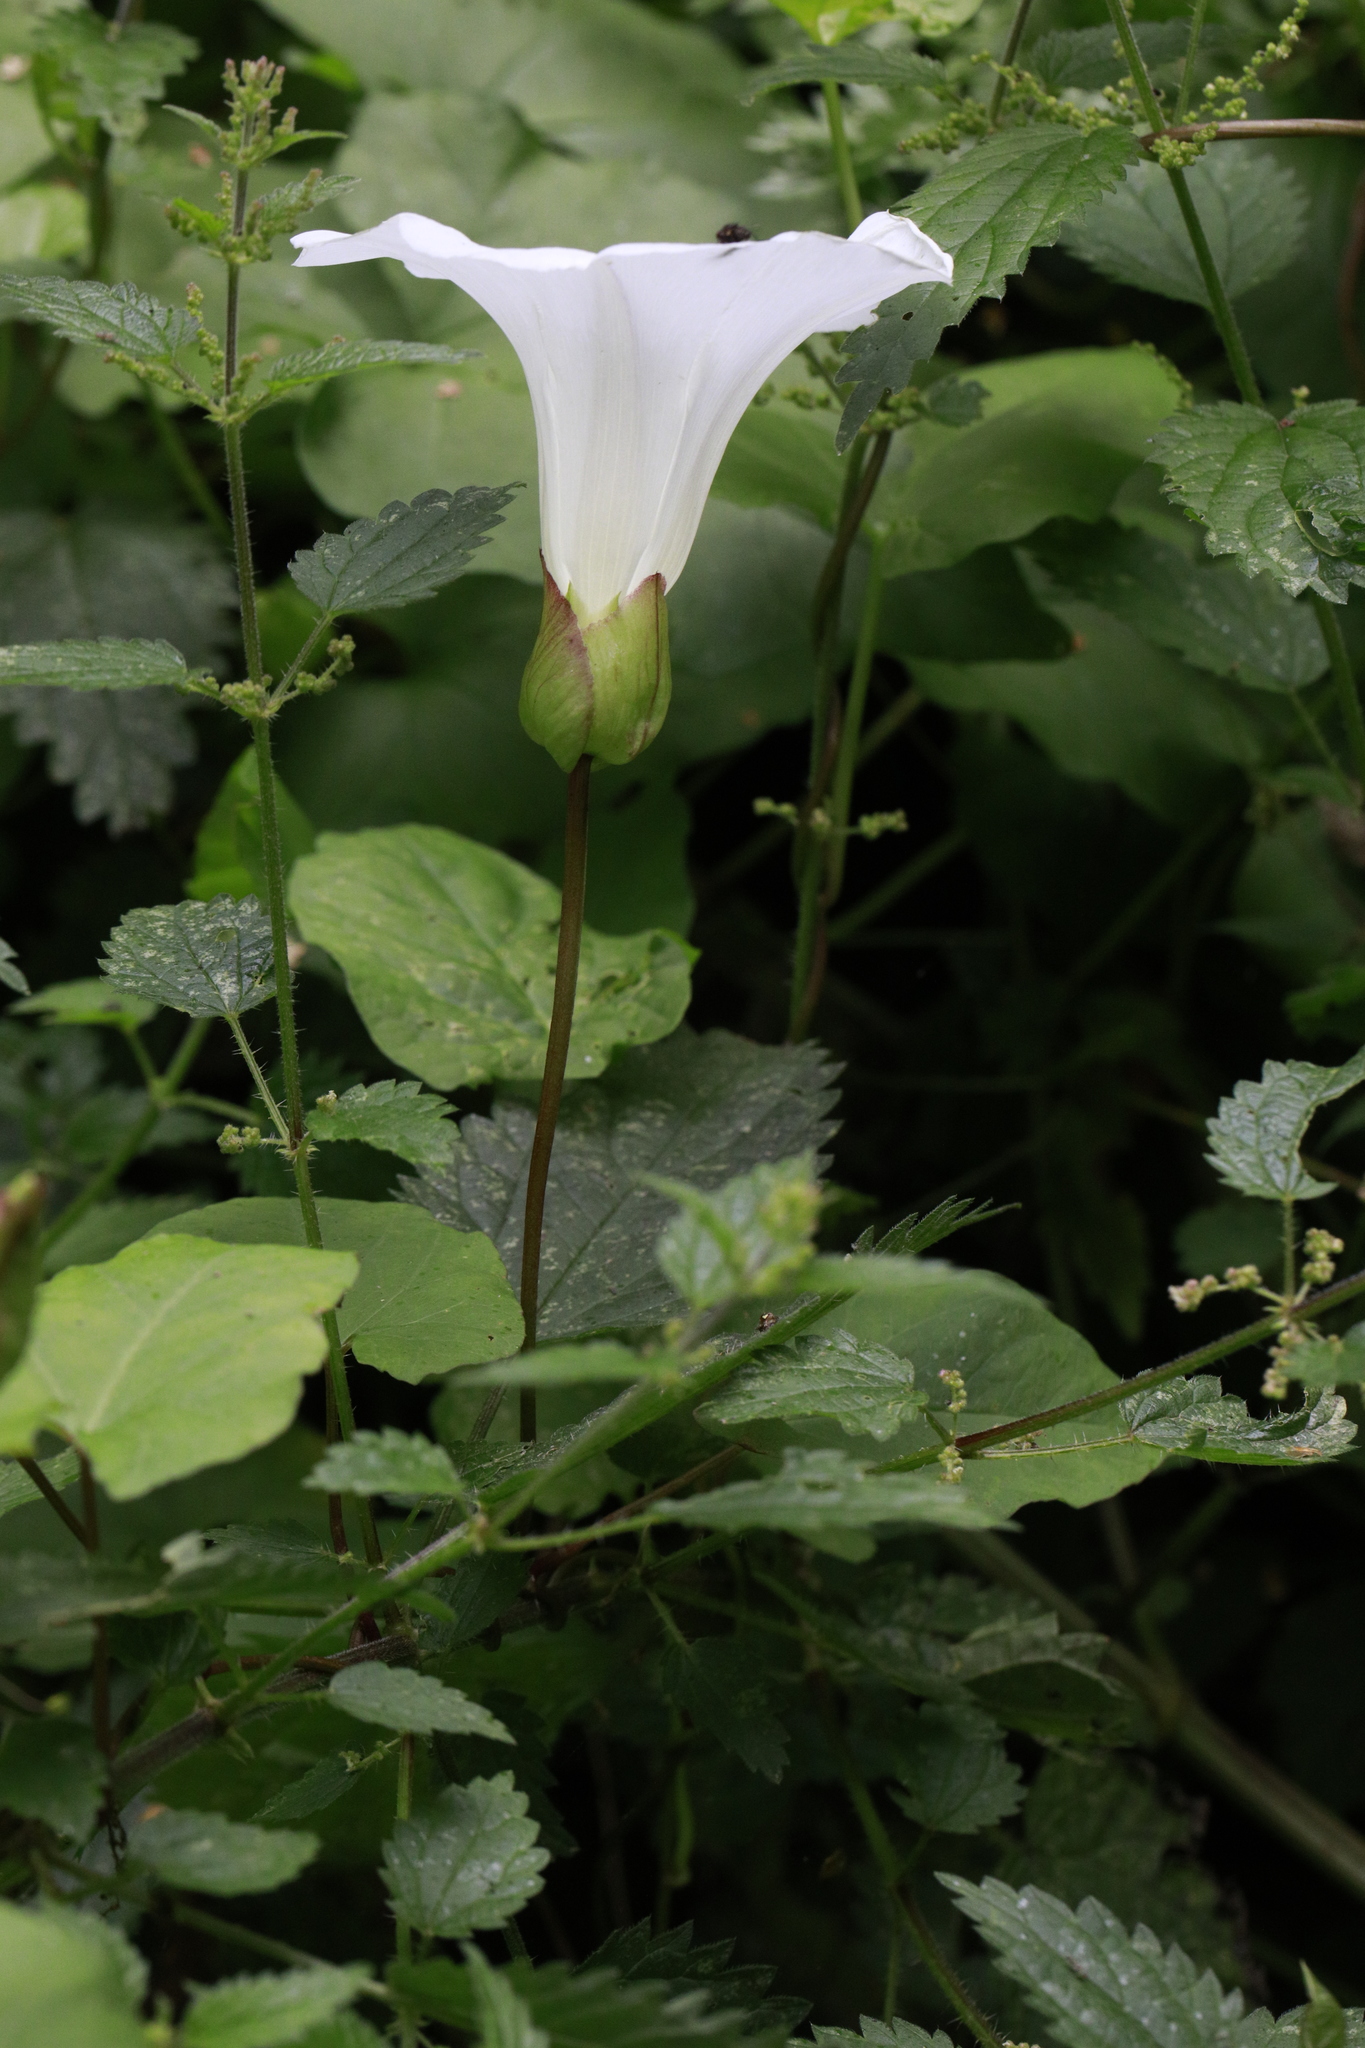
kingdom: Plantae
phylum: Tracheophyta
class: Magnoliopsida
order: Solanales
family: Convolvulaceae
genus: Calystegia
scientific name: Calystegia silvatica
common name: Large bindweed
